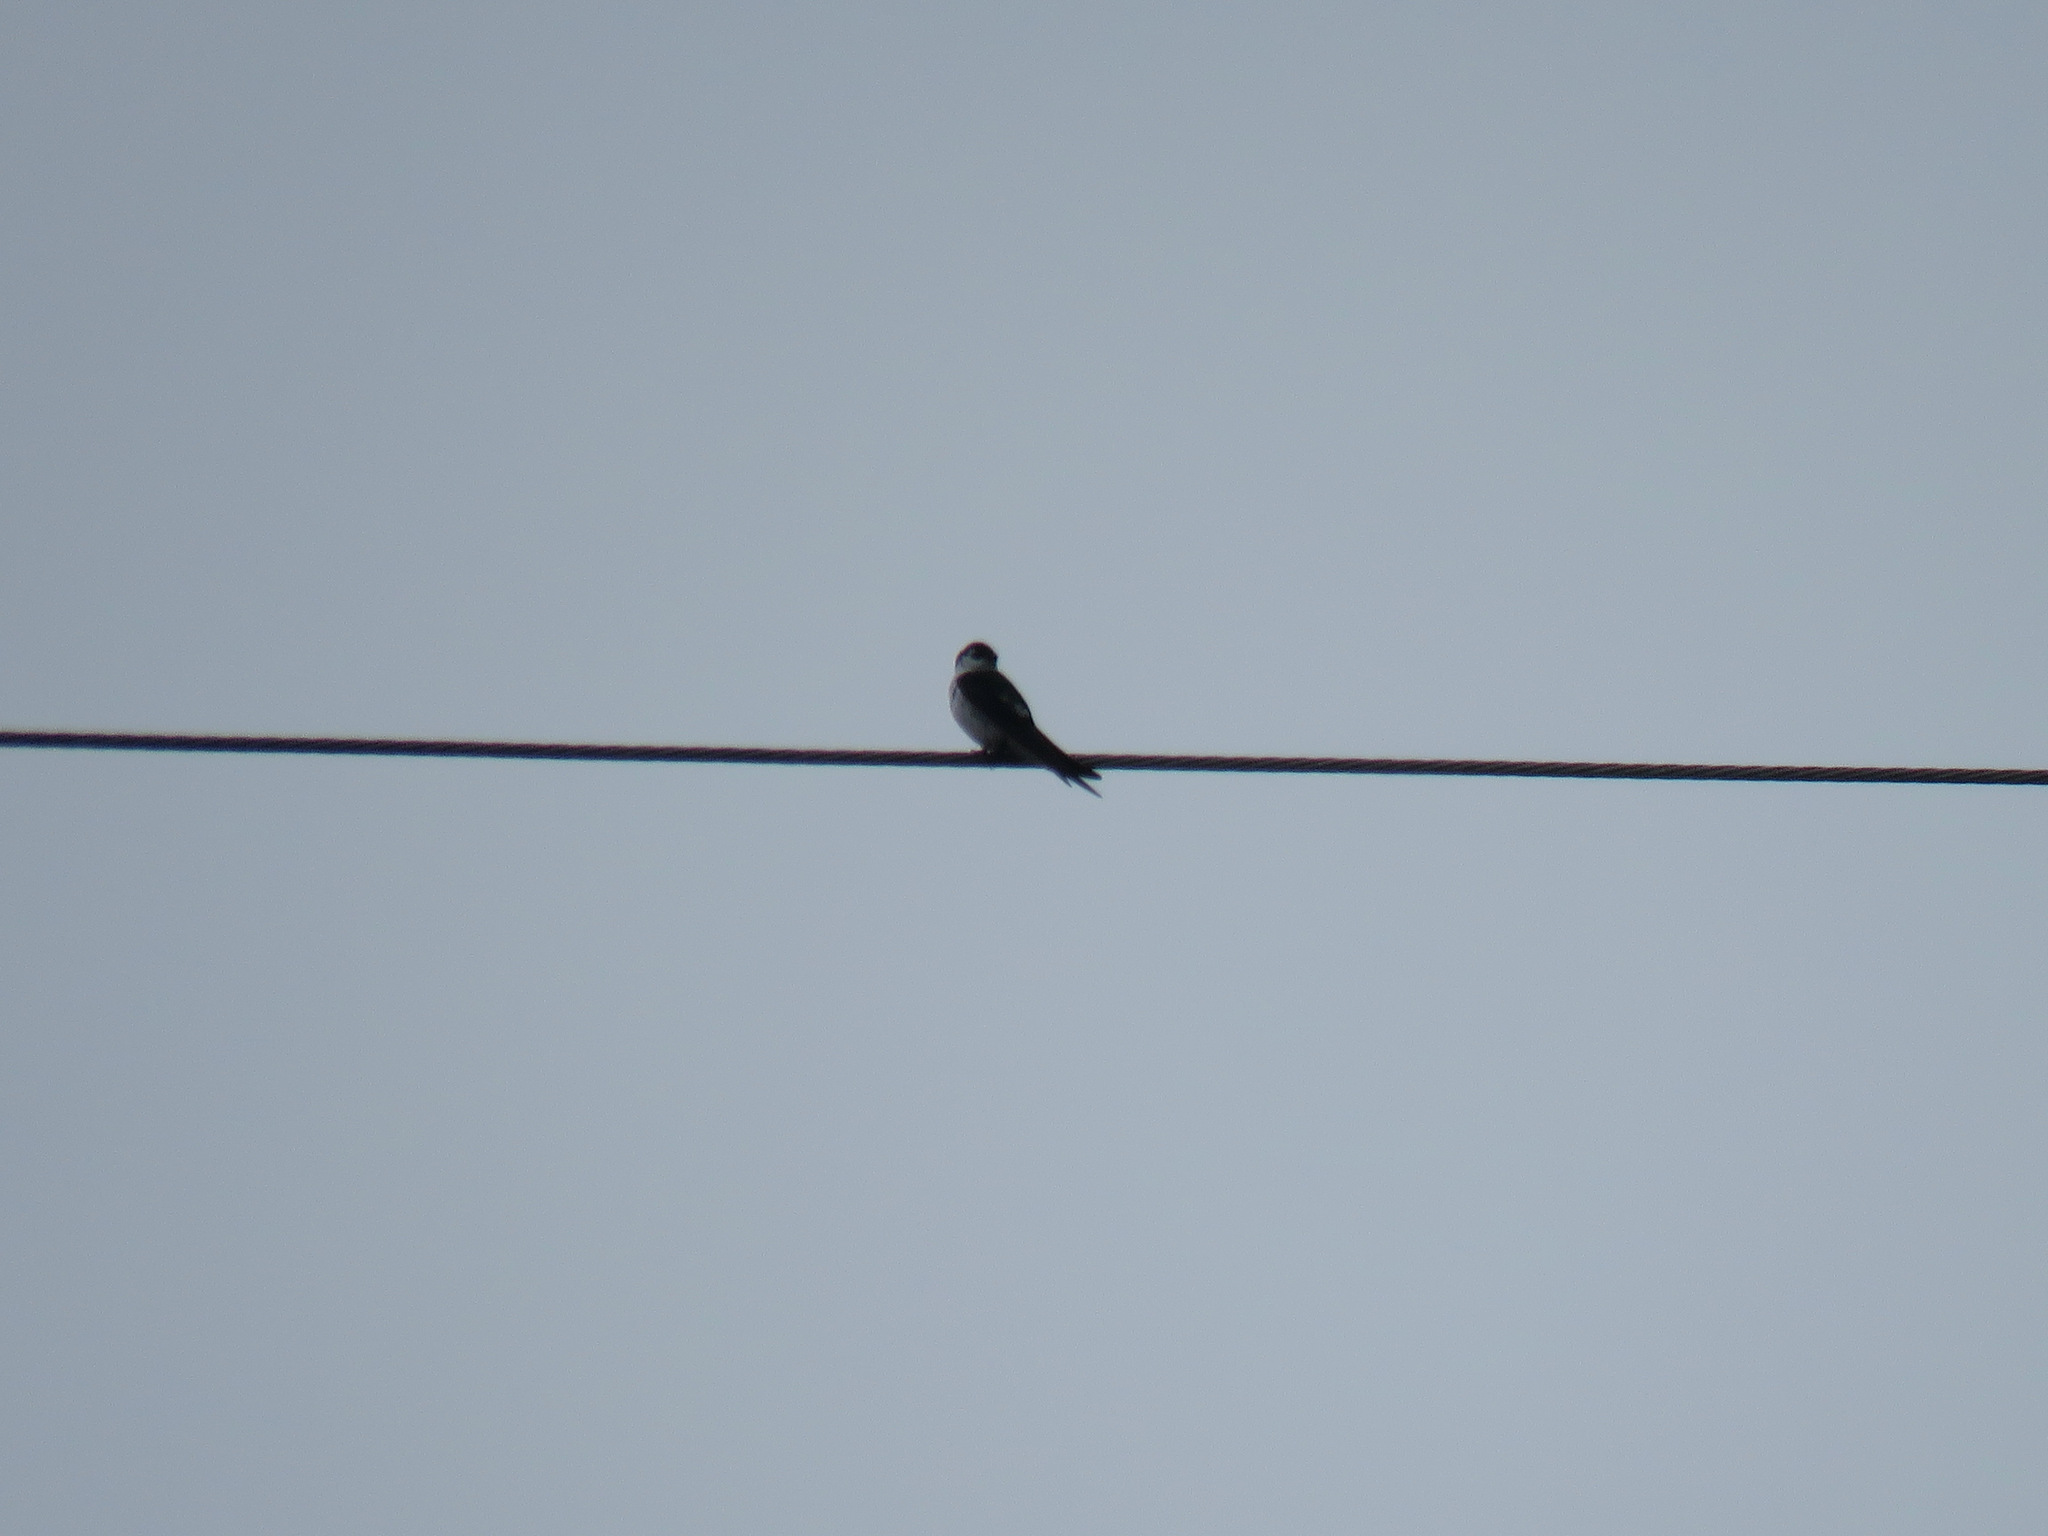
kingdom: Animalia
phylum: Chordata
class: Aves
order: Passeriformes
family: Hirundinidae
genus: Tachycineta
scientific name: Tachycineta thalassina
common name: Violet-green swallow
